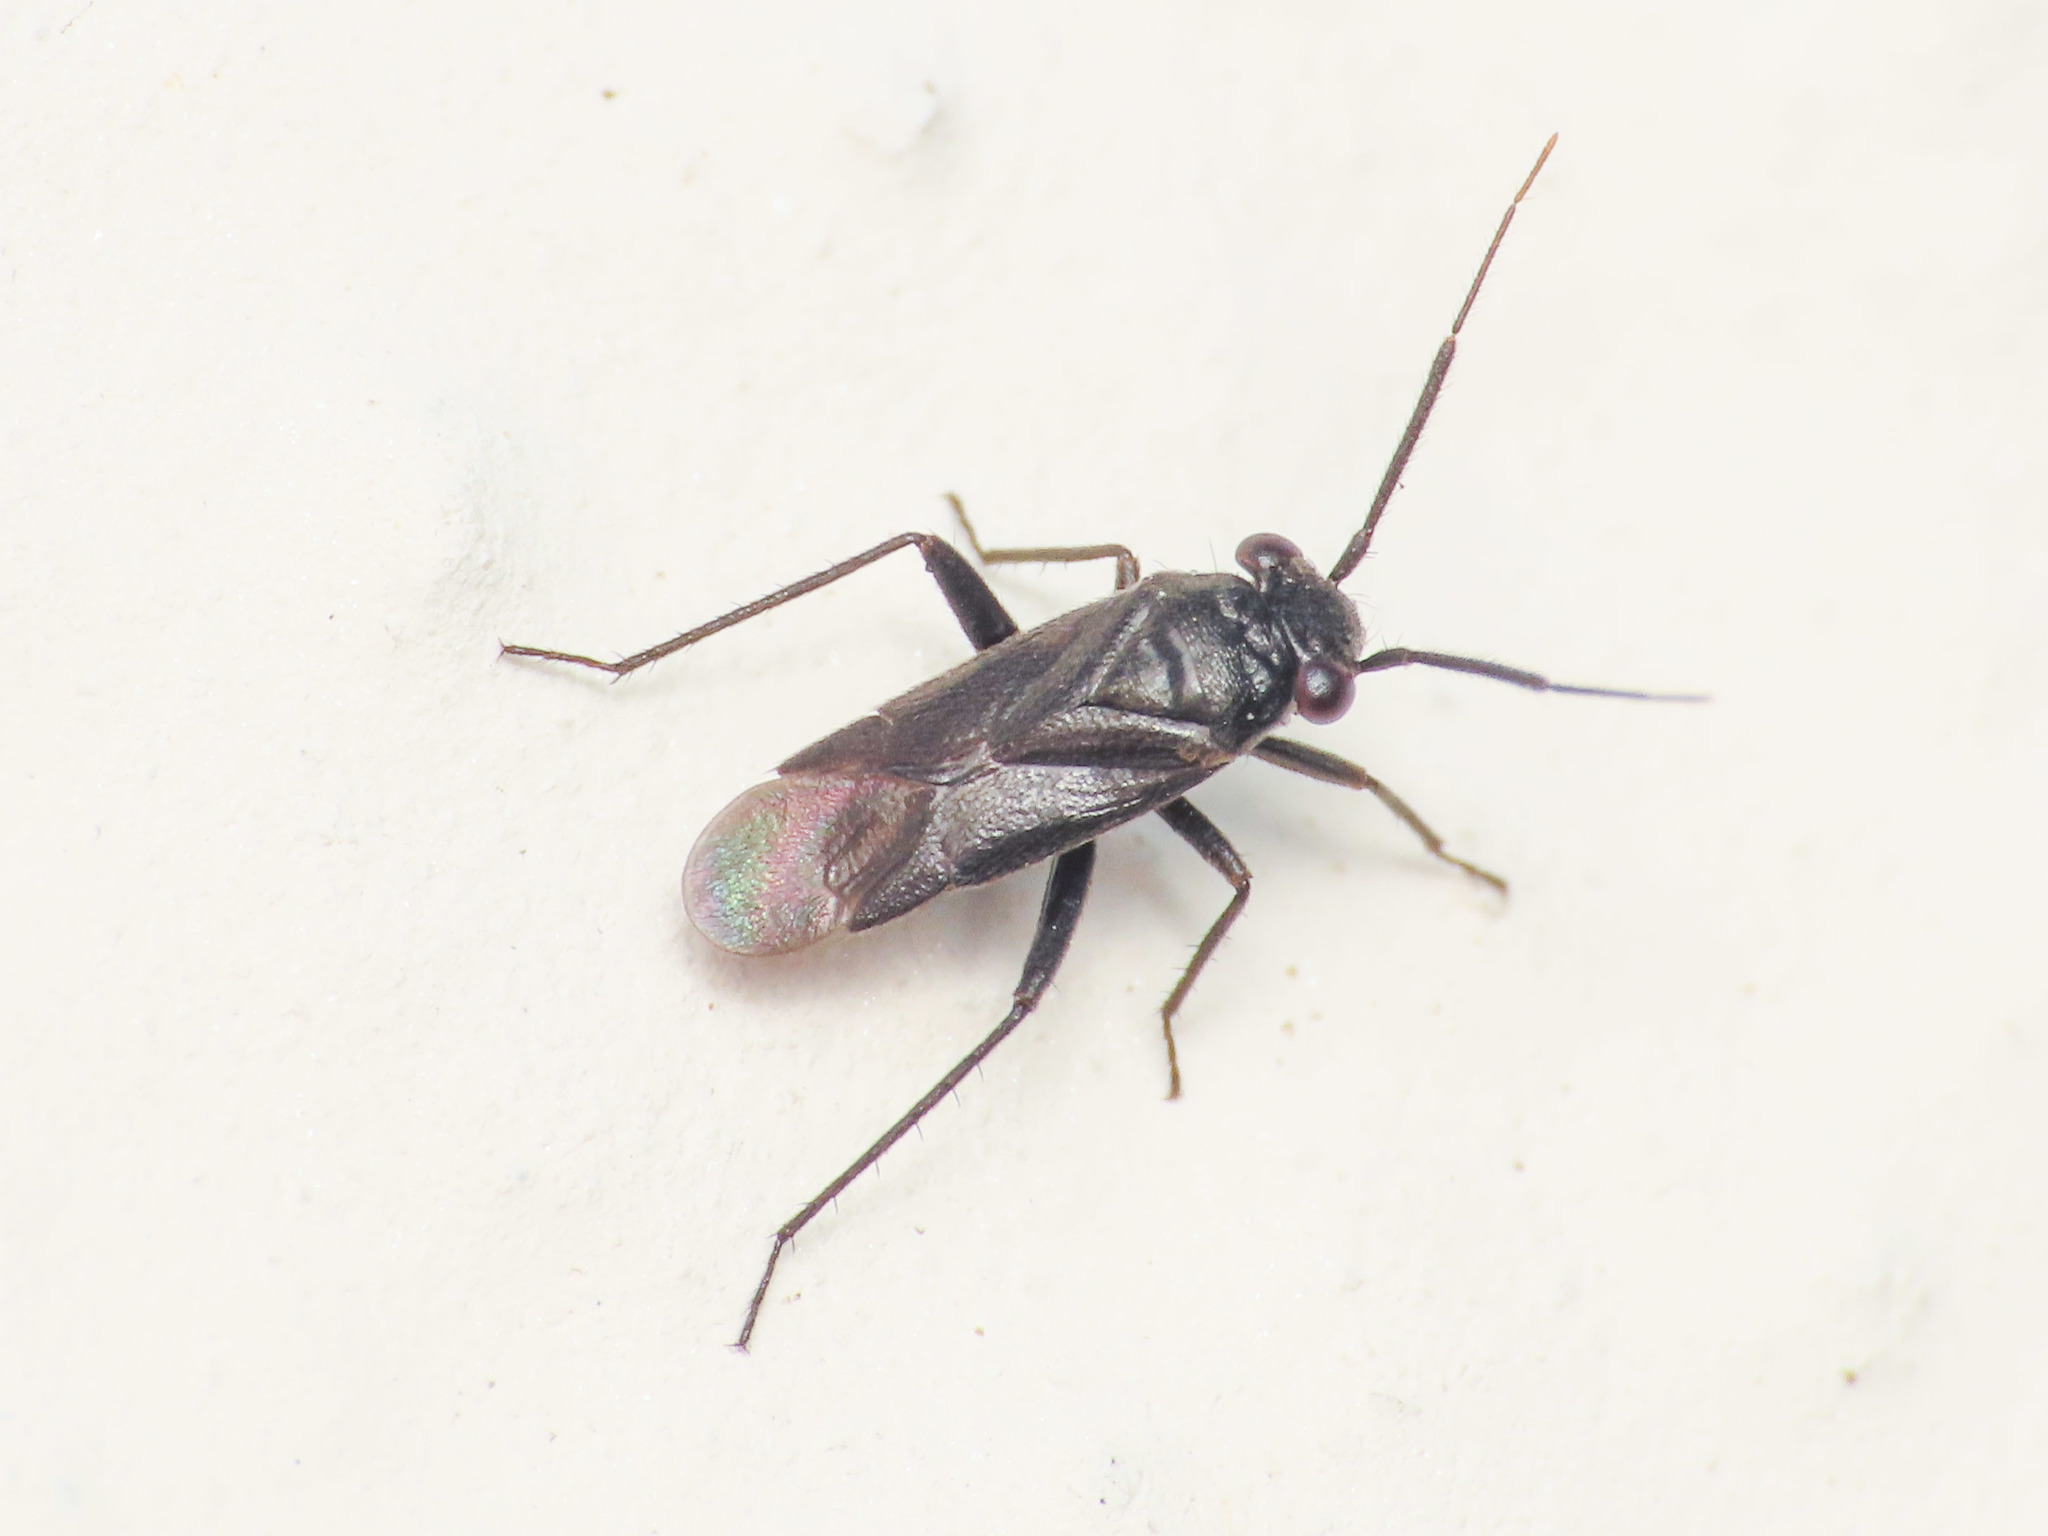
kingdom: Animalia
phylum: Arthropoda
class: Insecta
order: Hemiptera
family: Miridae
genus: Pachytomella
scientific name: Pachytomella passerinii
